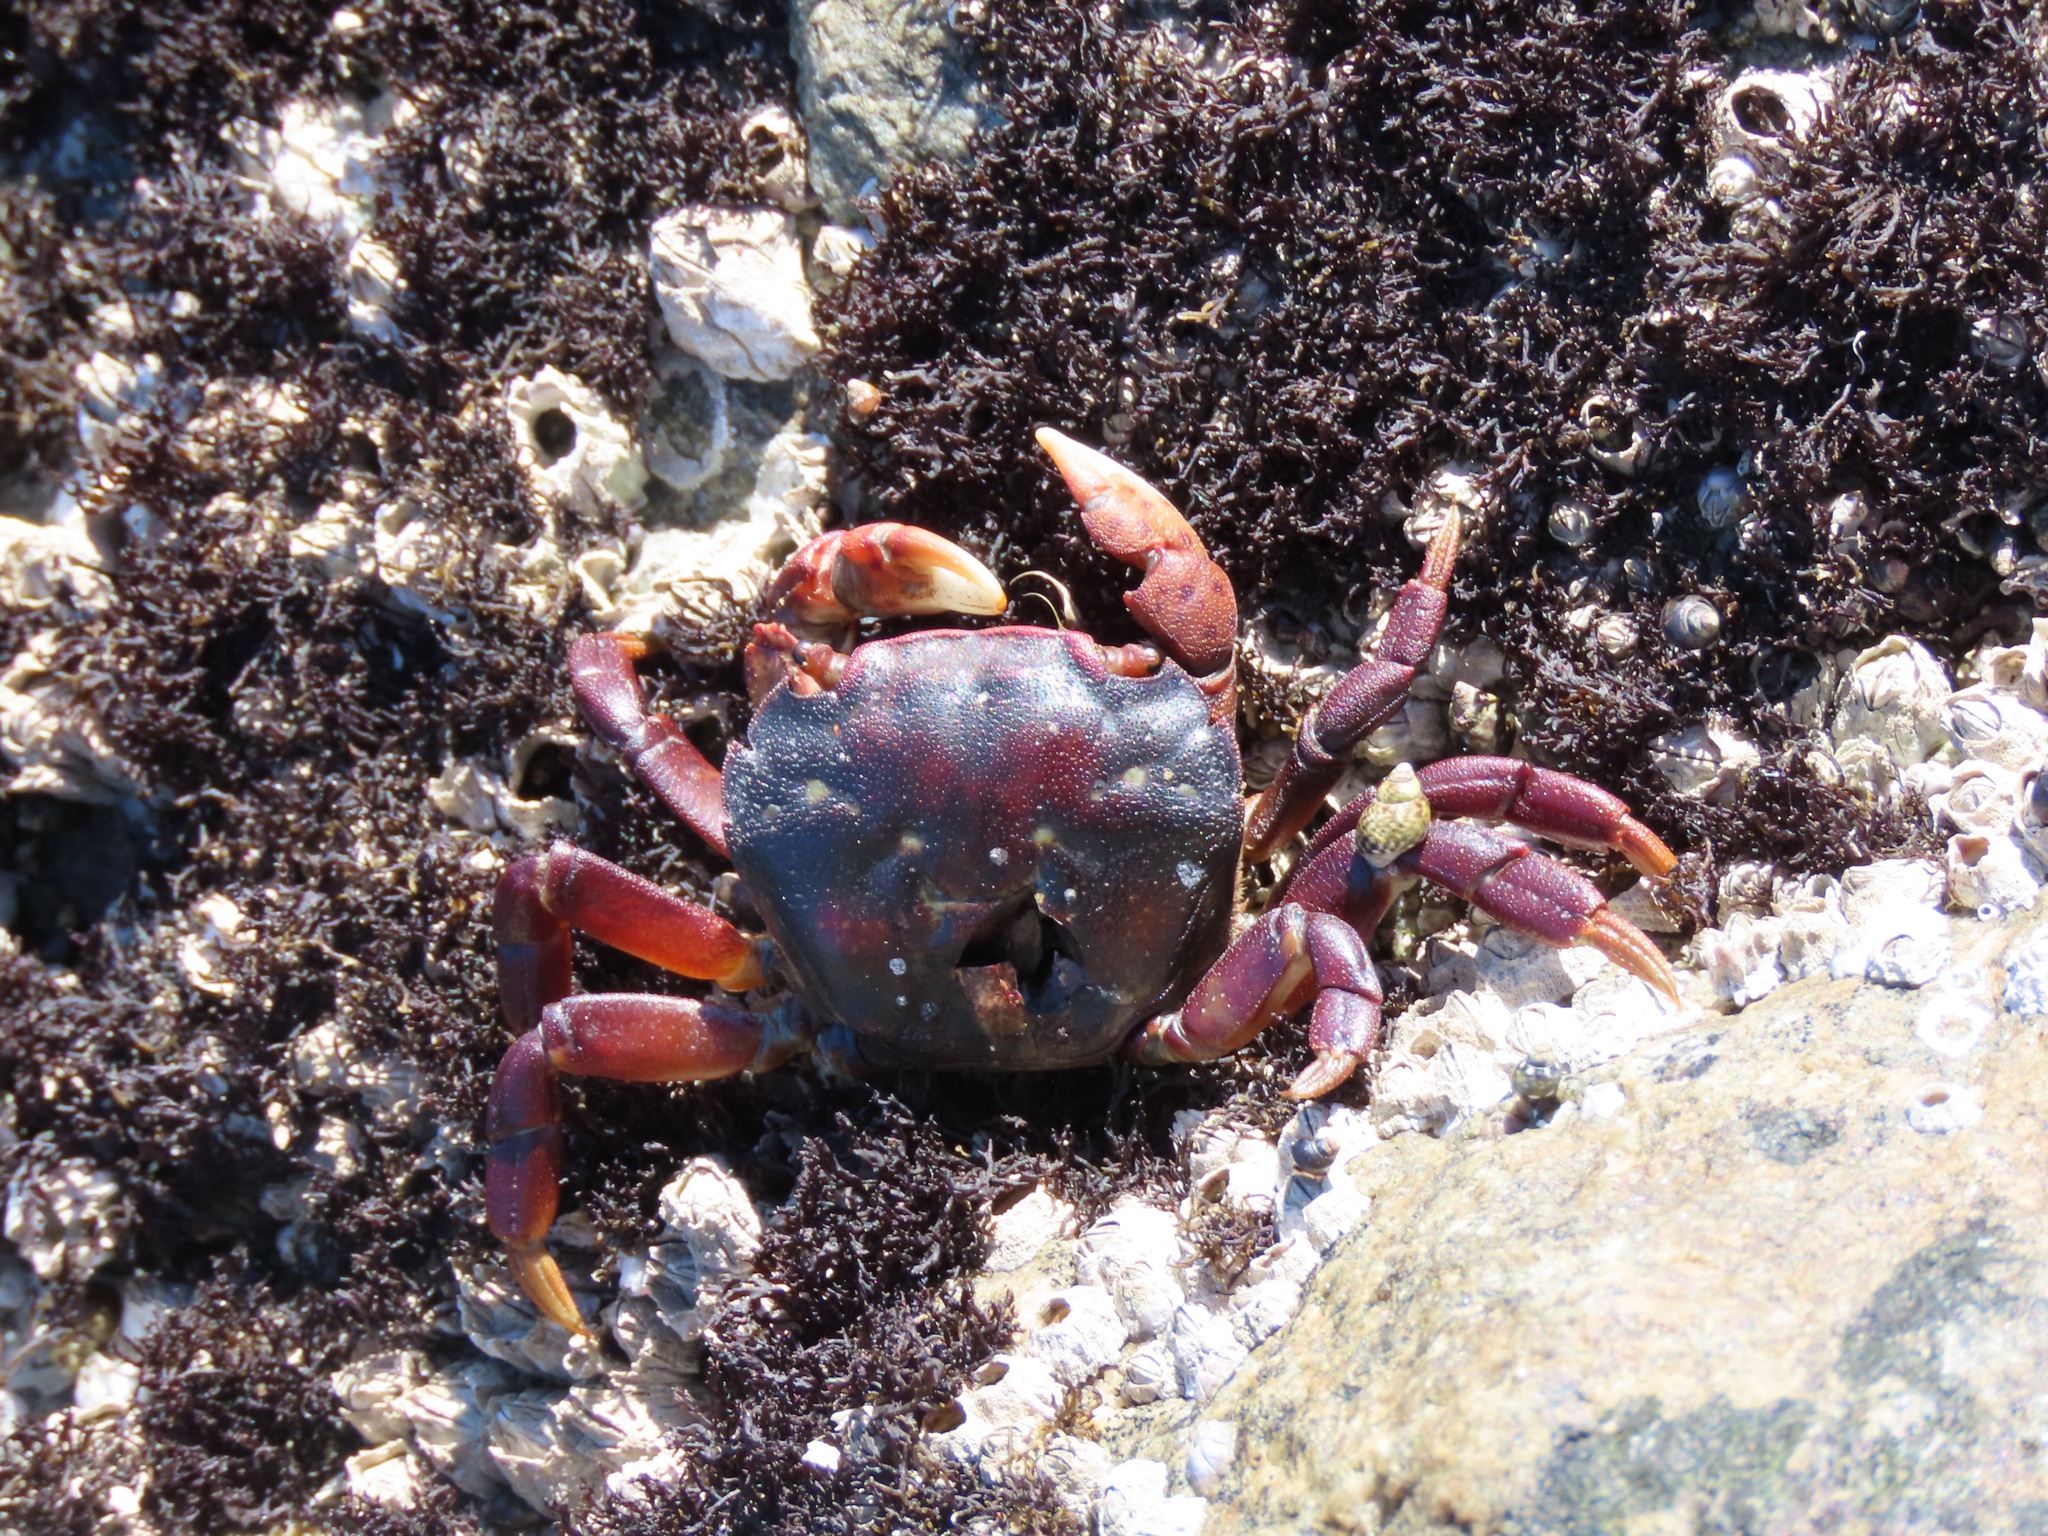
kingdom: Animalia
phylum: Arthropoda
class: Malacostraca
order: Decapoda
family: Varunidae
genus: Hemigrapsus
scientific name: Hemigrapsus nudus
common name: Purple shore crab
